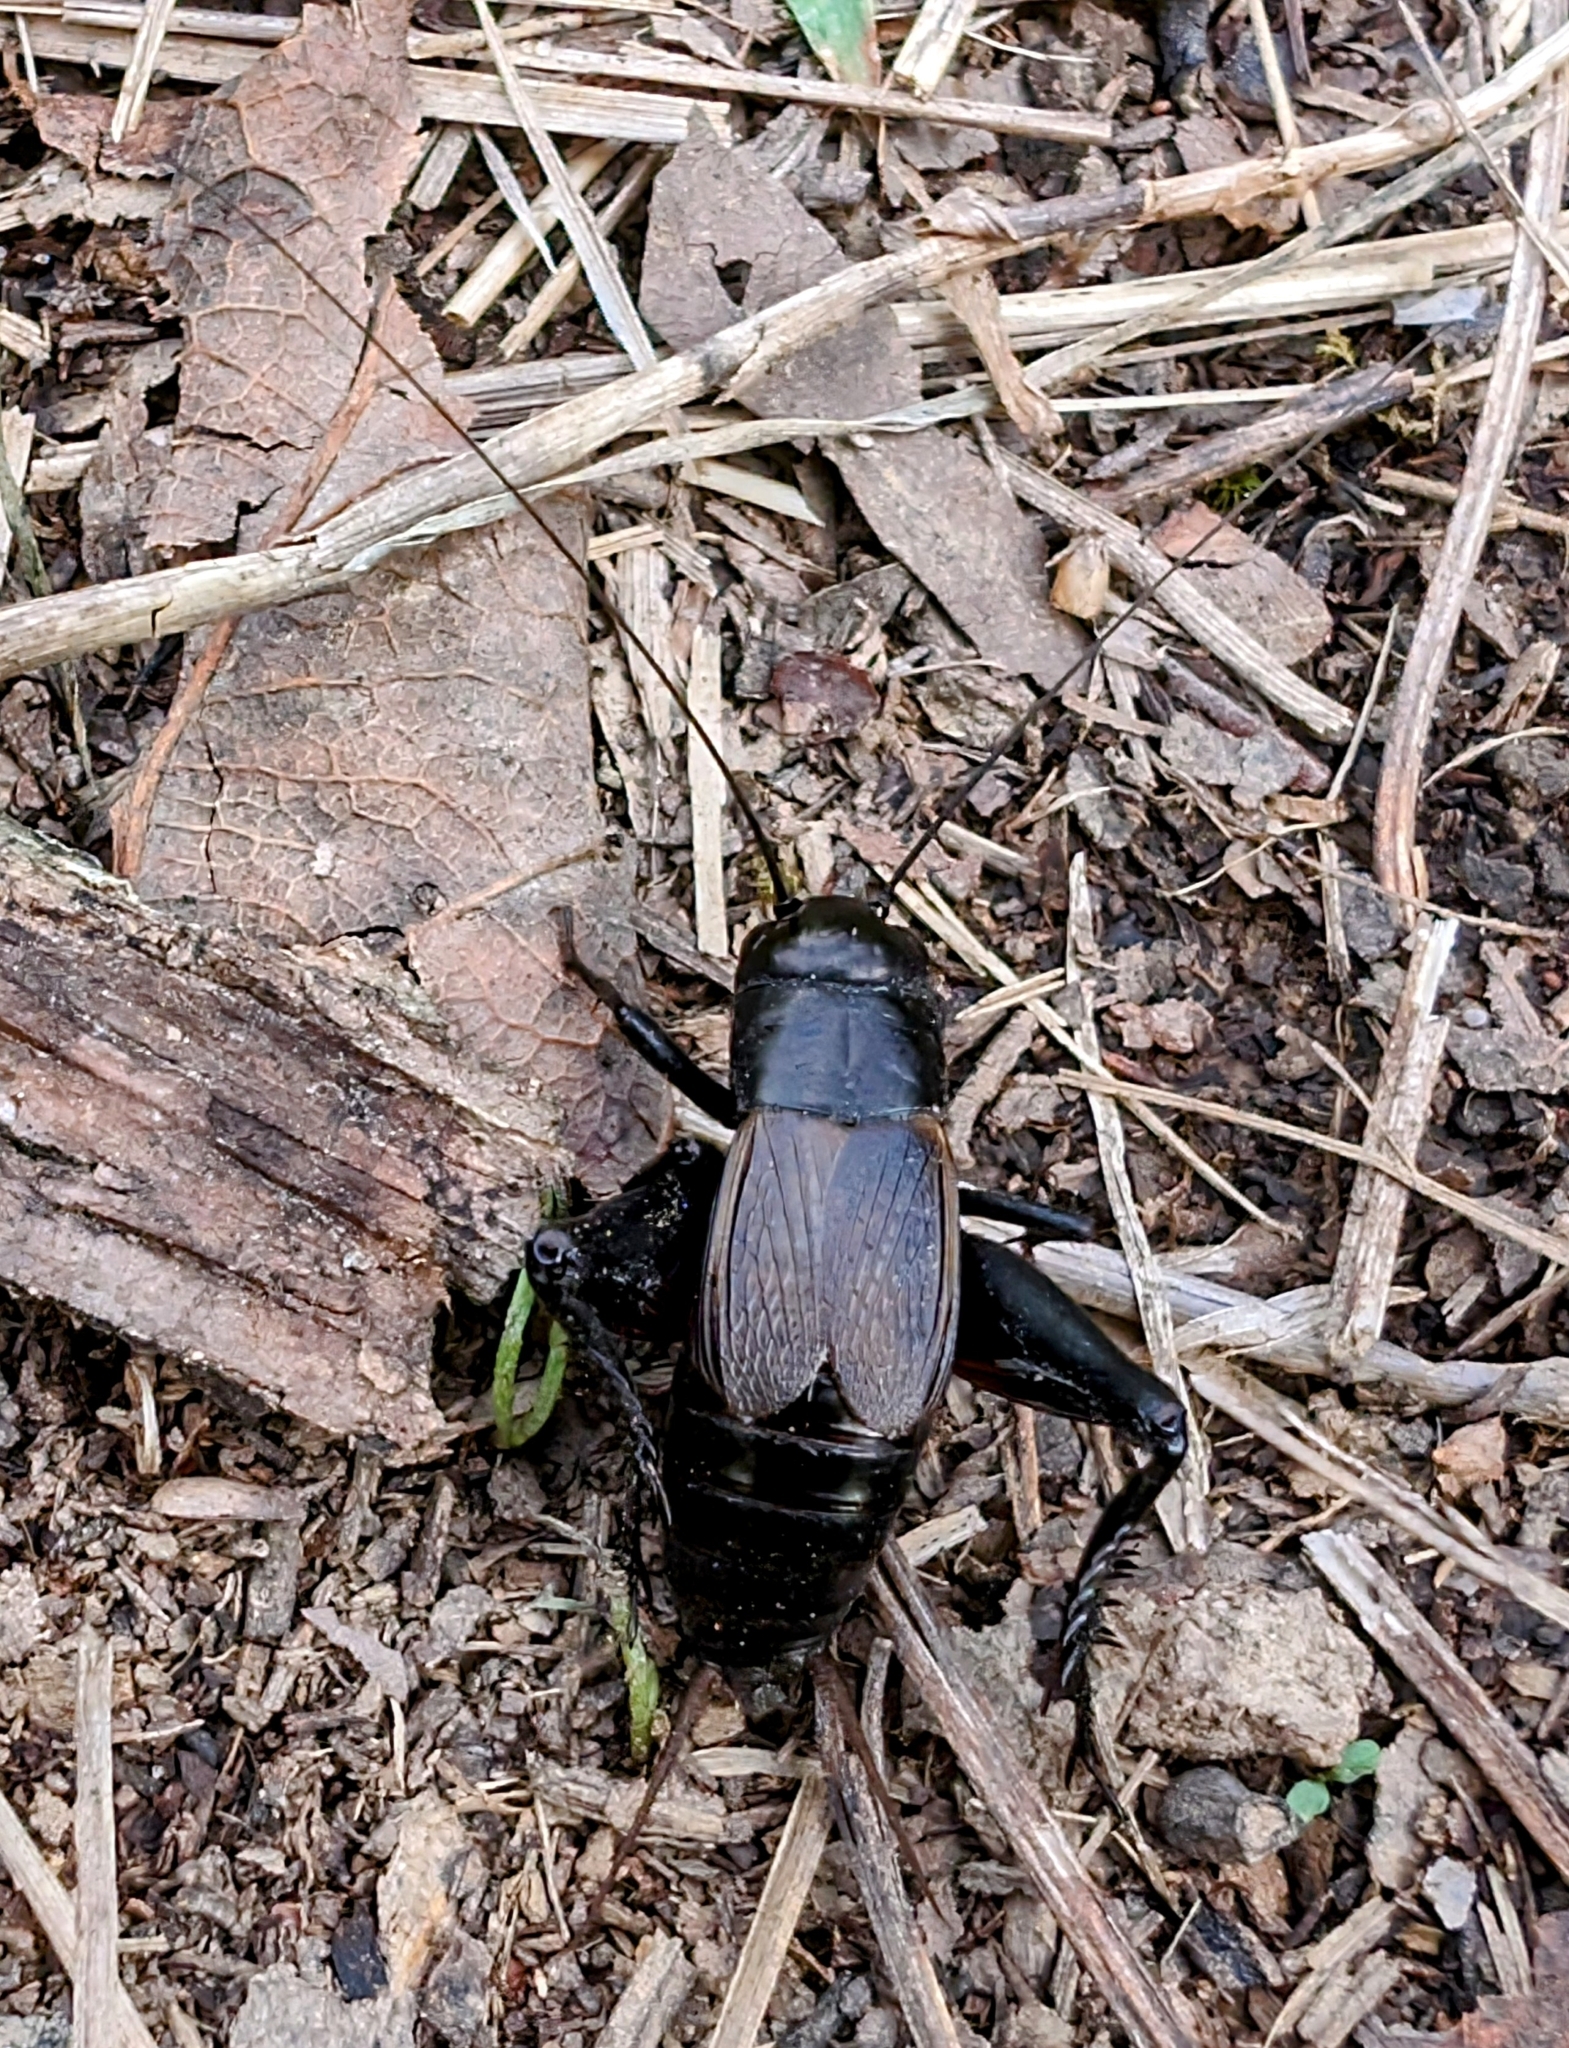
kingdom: Animalia
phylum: Arthropoda
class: Insecta
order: Orthoptera
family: Gryllidae
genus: Gryllus
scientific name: Gryllus pennsylvanicus
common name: Fall field cricket
